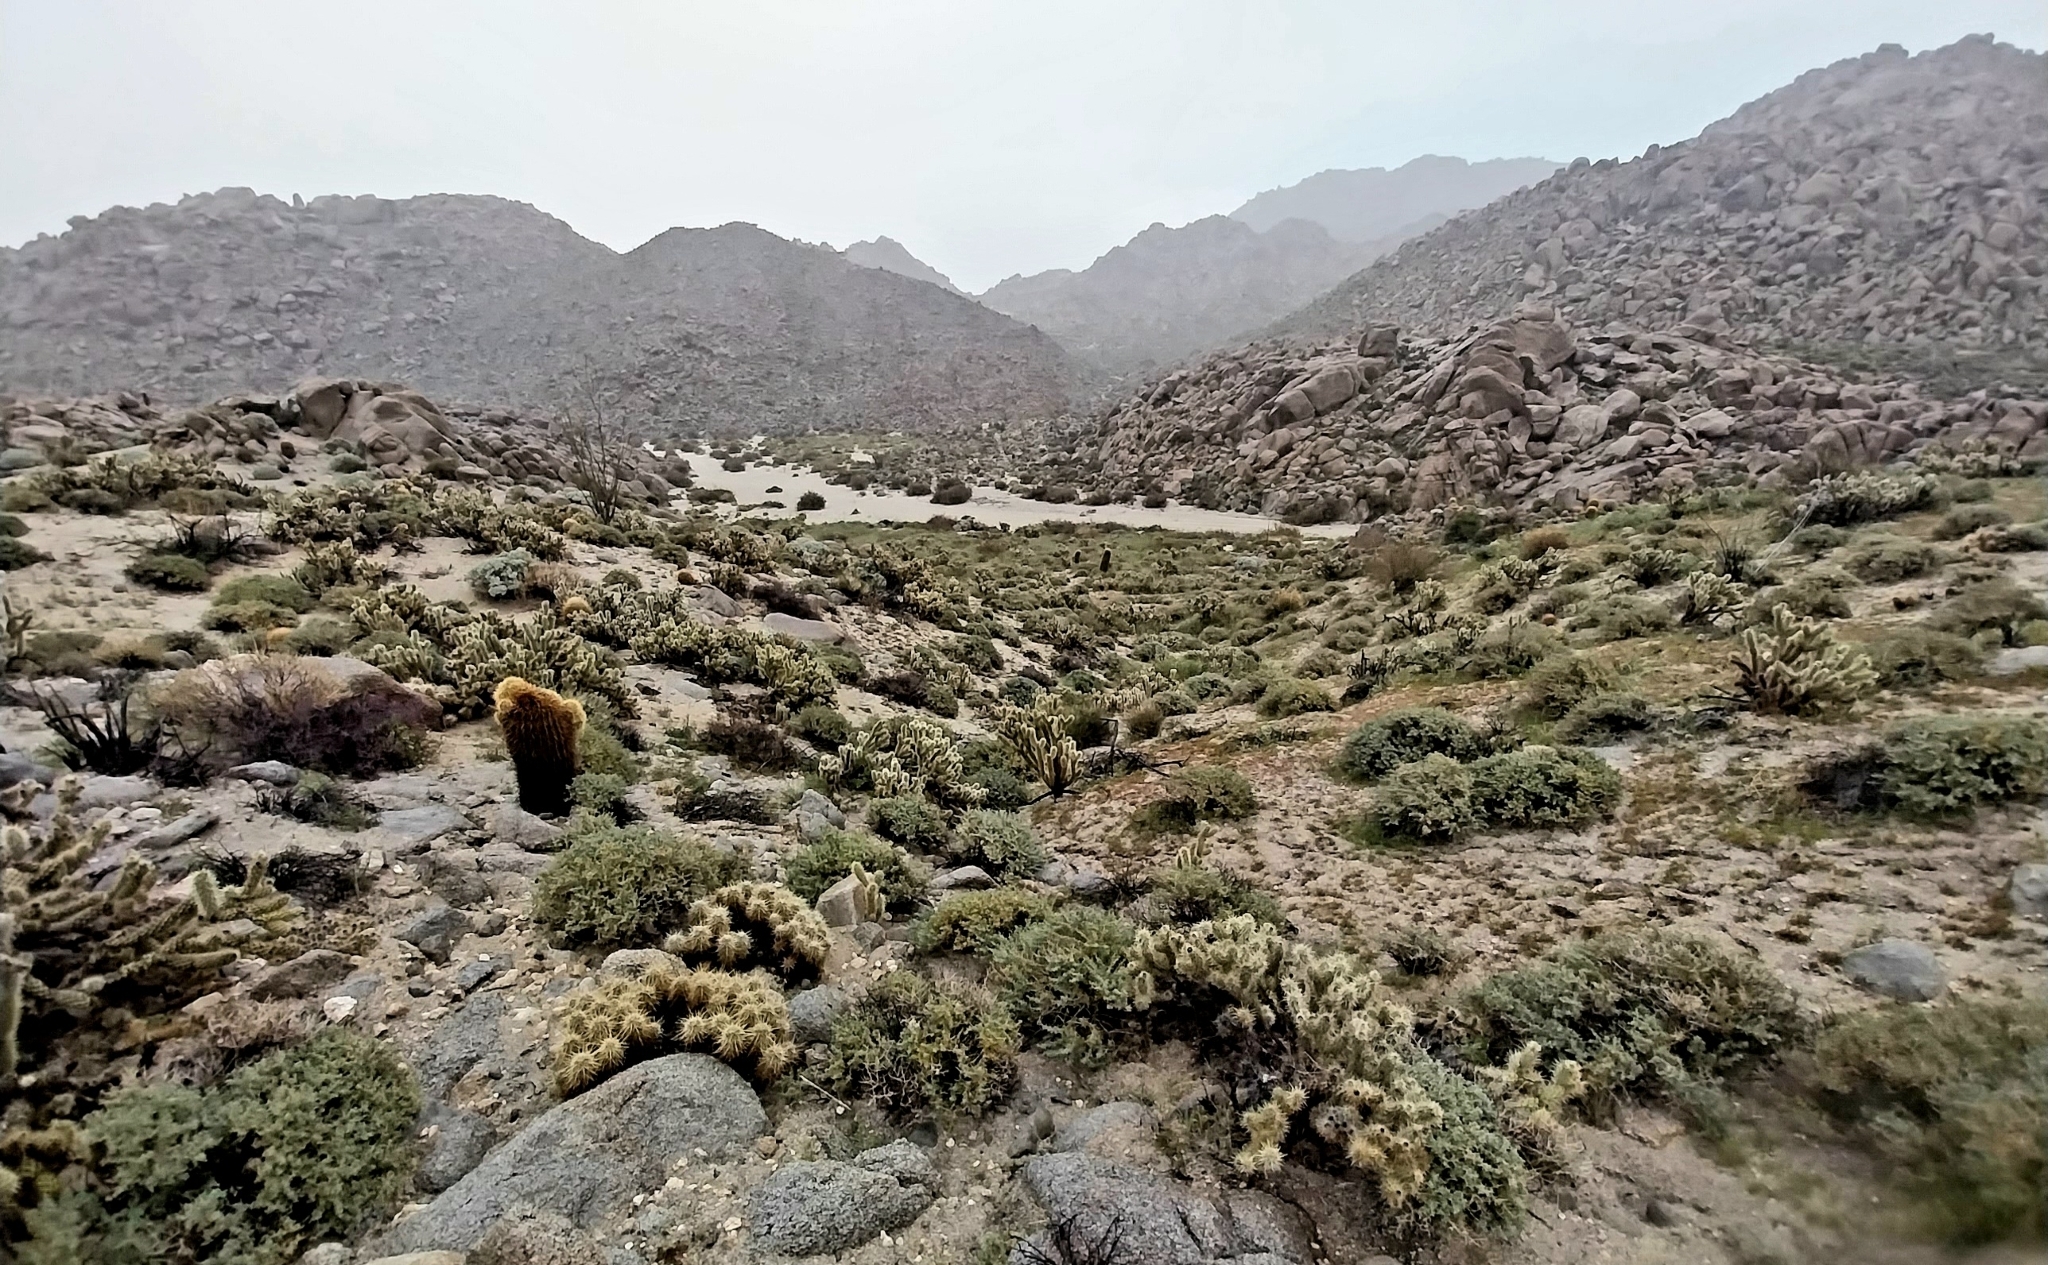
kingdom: Plantae
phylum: Tracheophyta
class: Magnoliopsida
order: Caryophyllales
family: Cactaceae
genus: Echinocereus
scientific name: Echinocereus engelmannii
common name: Engelmann's hedgehog cactus
